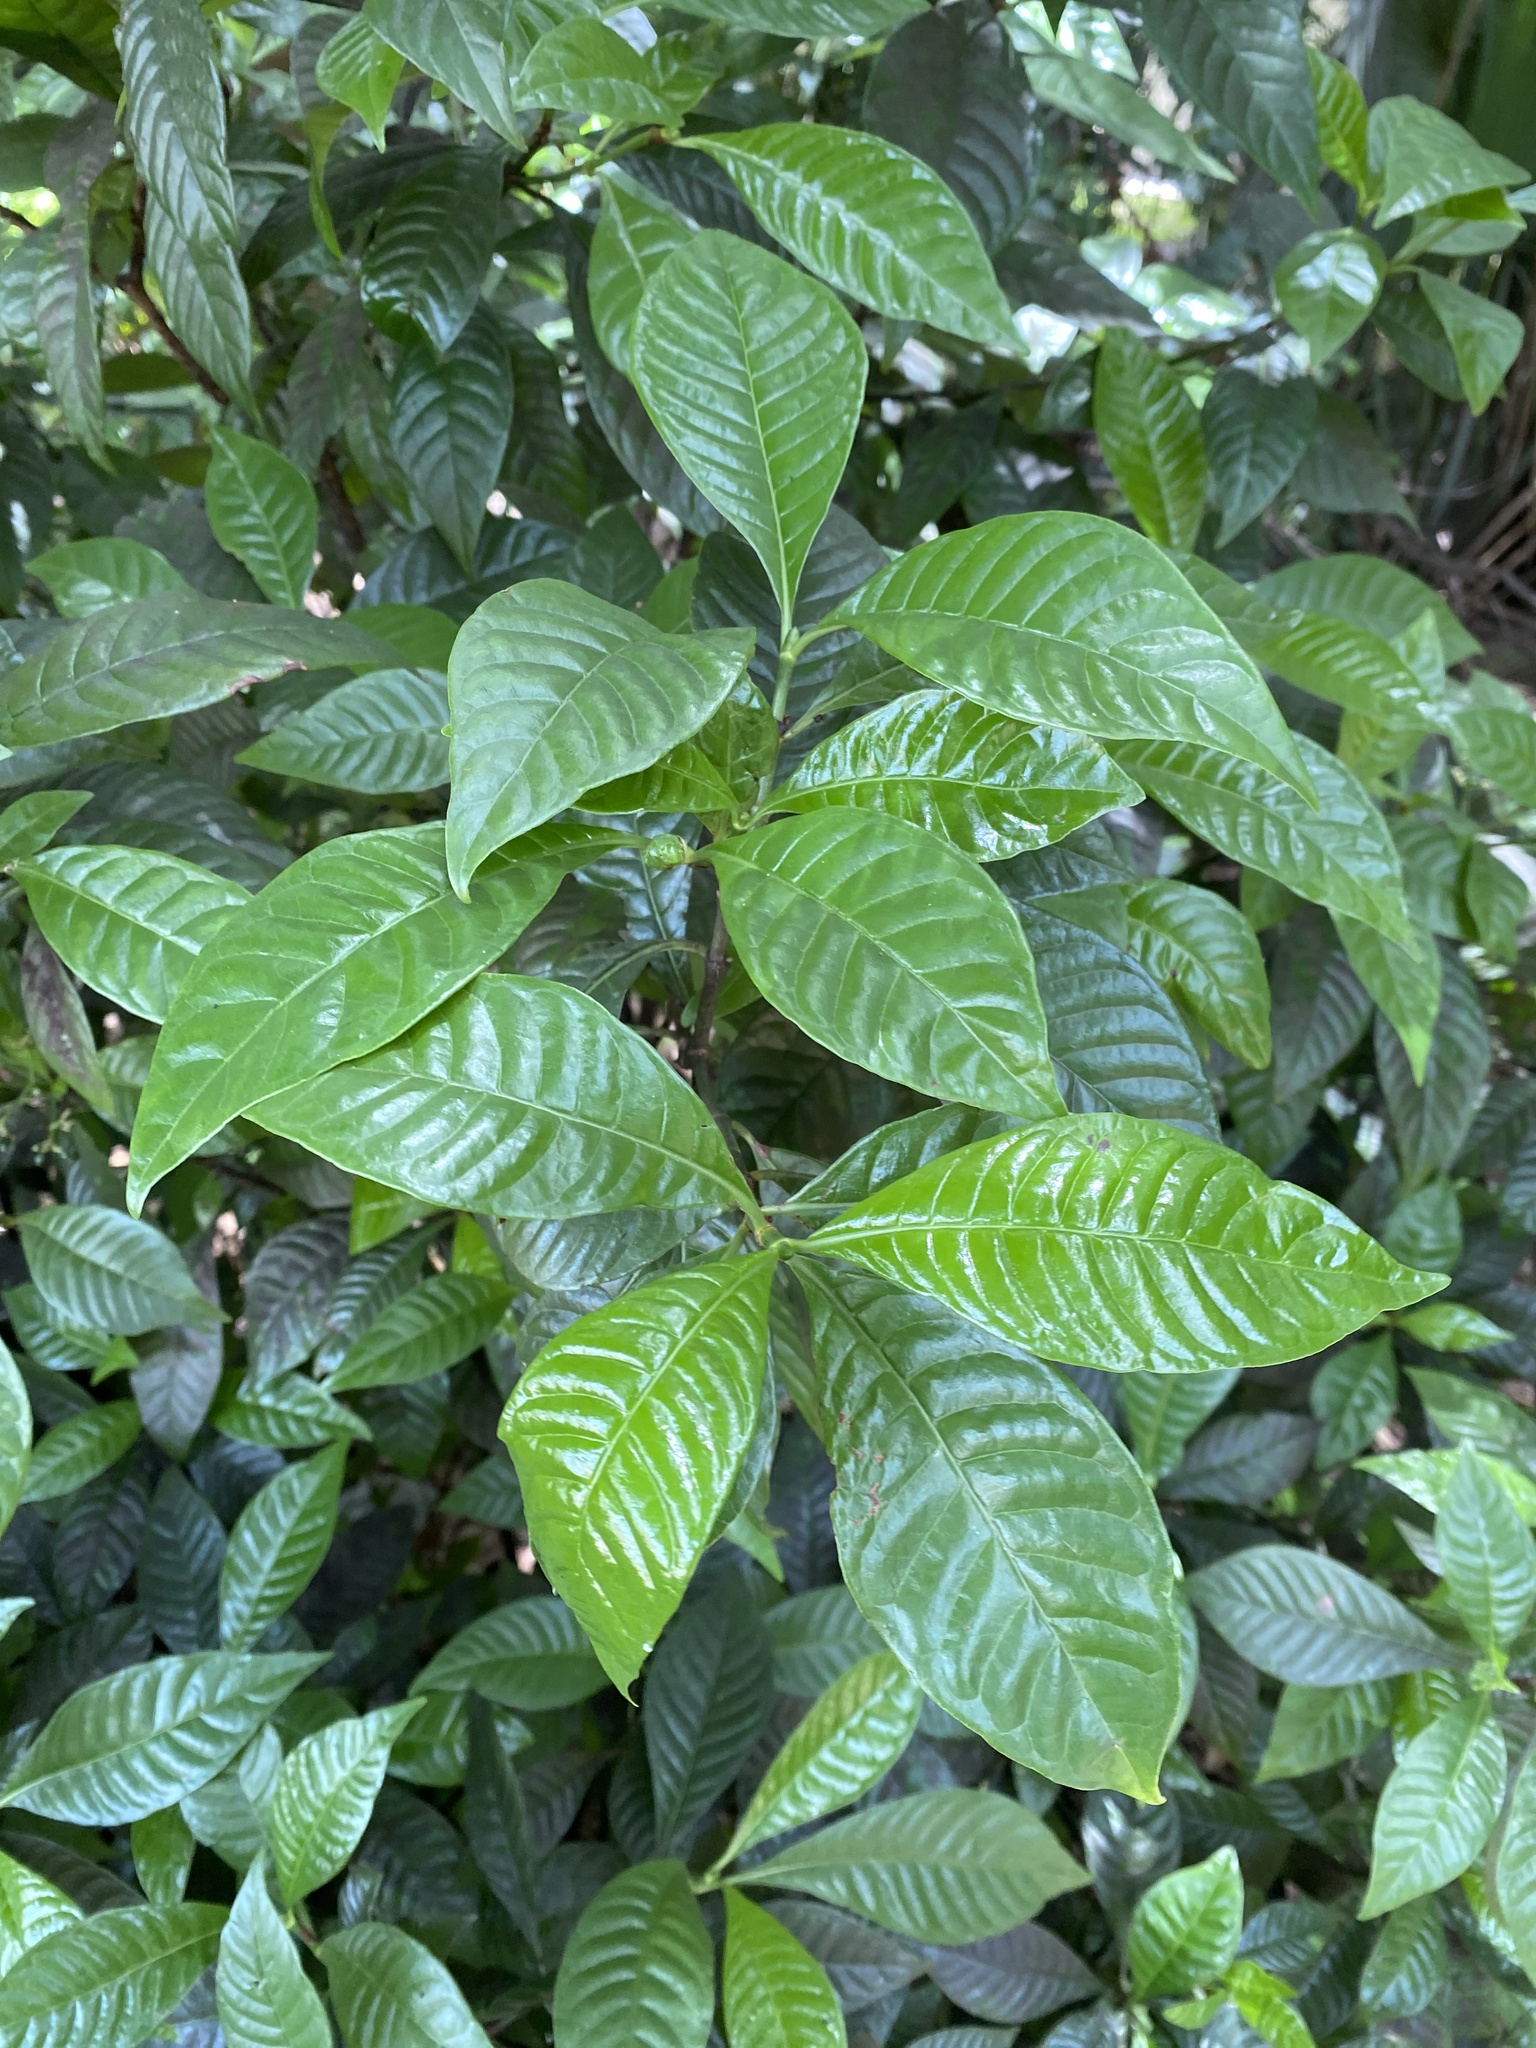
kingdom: Plantae
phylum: Tracheophyta
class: Magnoliopsida
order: Gentianales
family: Rubiaceae
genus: Psychotria
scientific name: Psychotria nervosa
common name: Bastard cankerberry
